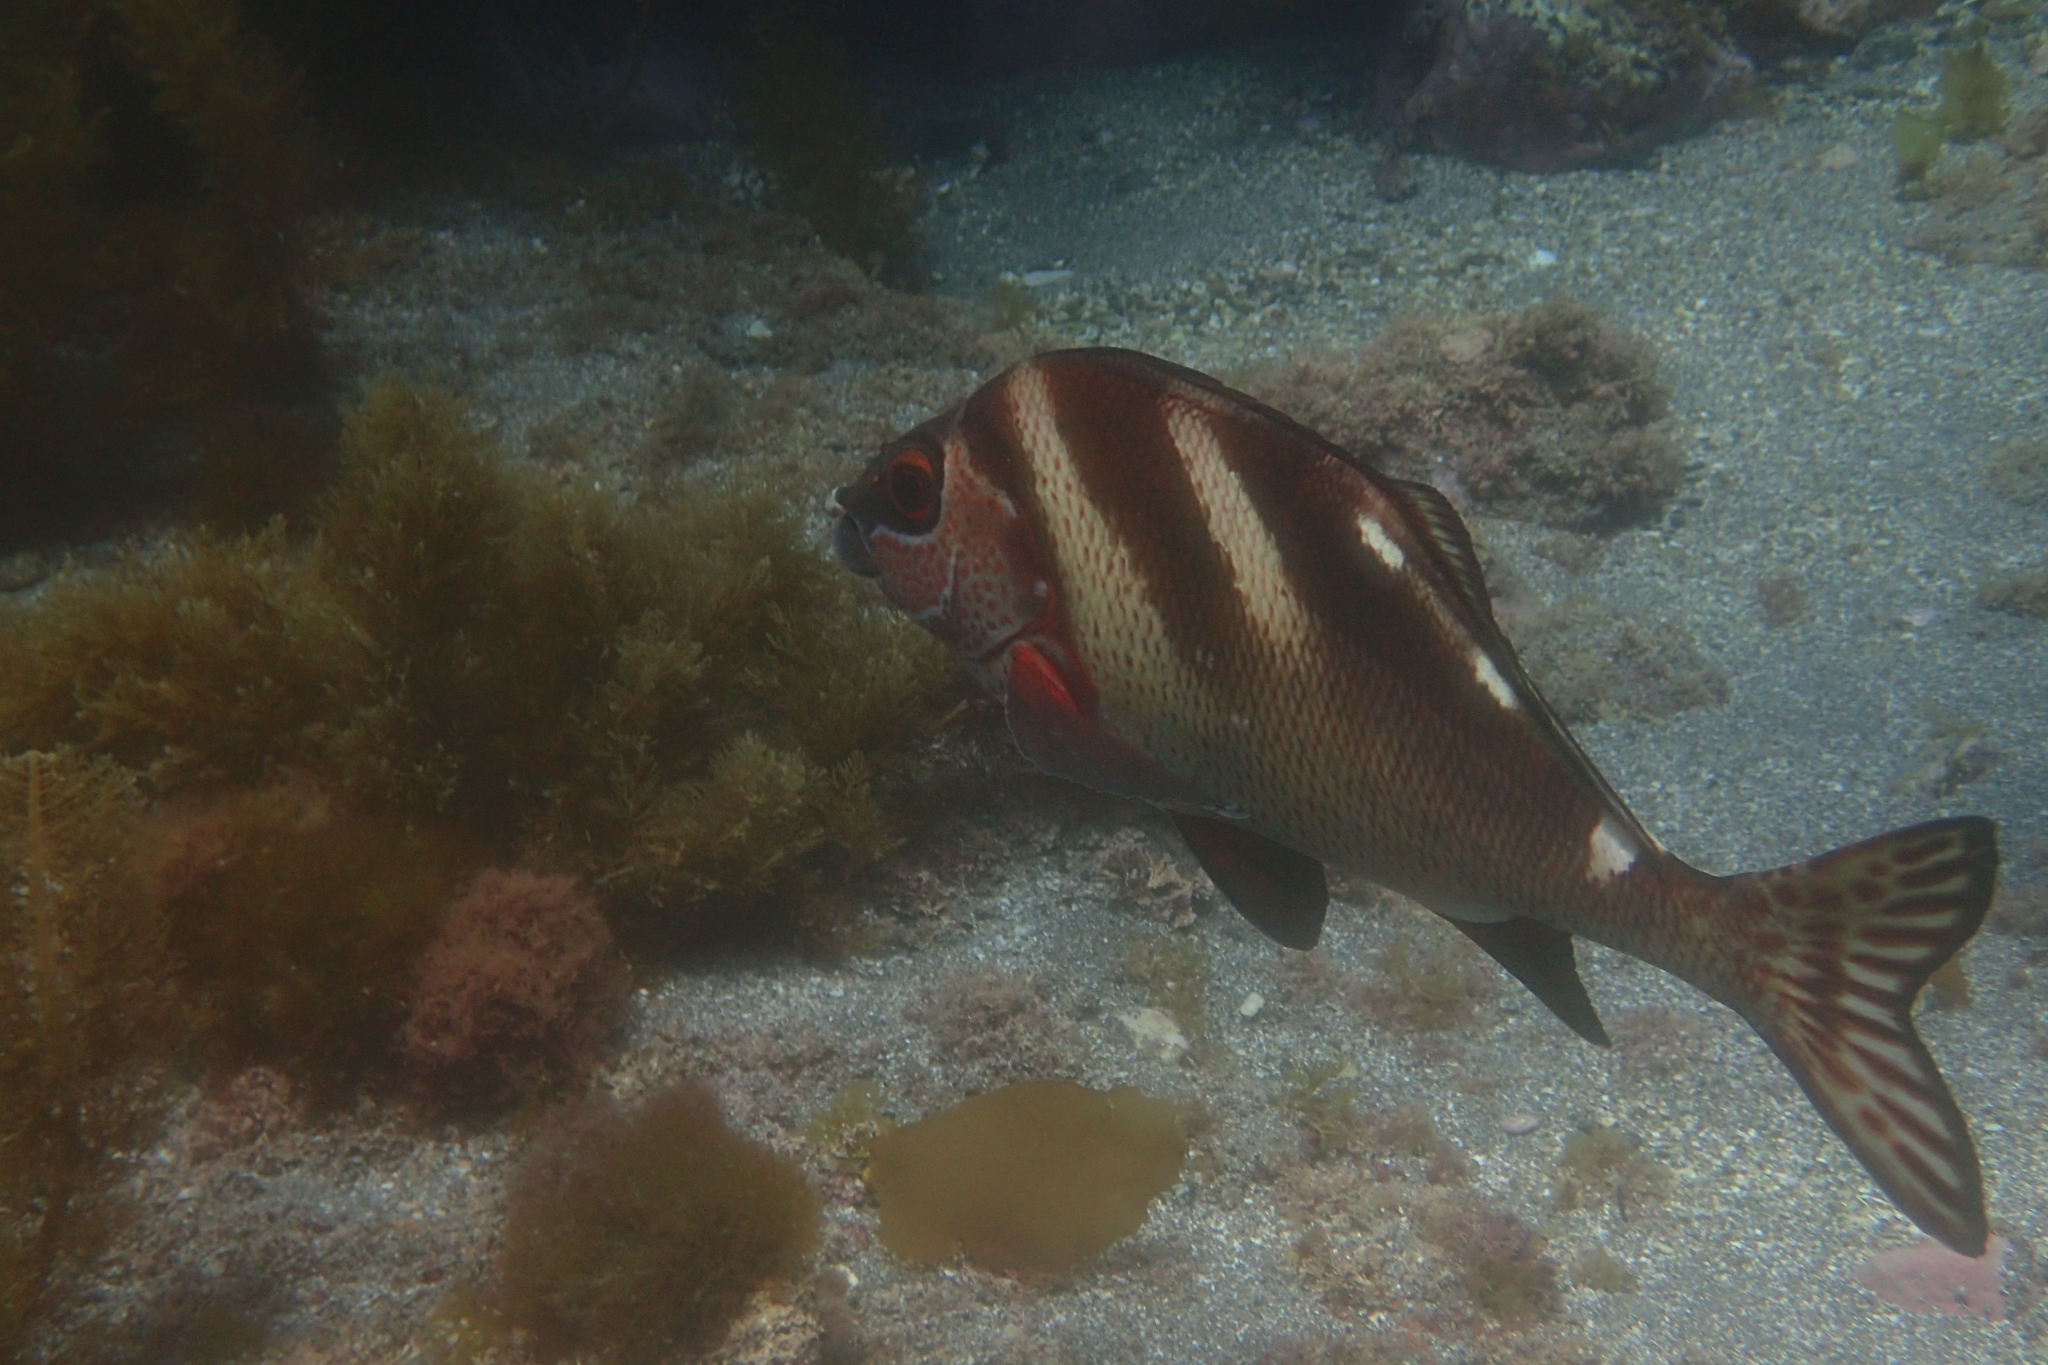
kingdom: Animalia
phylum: Chordata
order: Perciformes
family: Latridae
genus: Morwong
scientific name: Morwong ephippium
